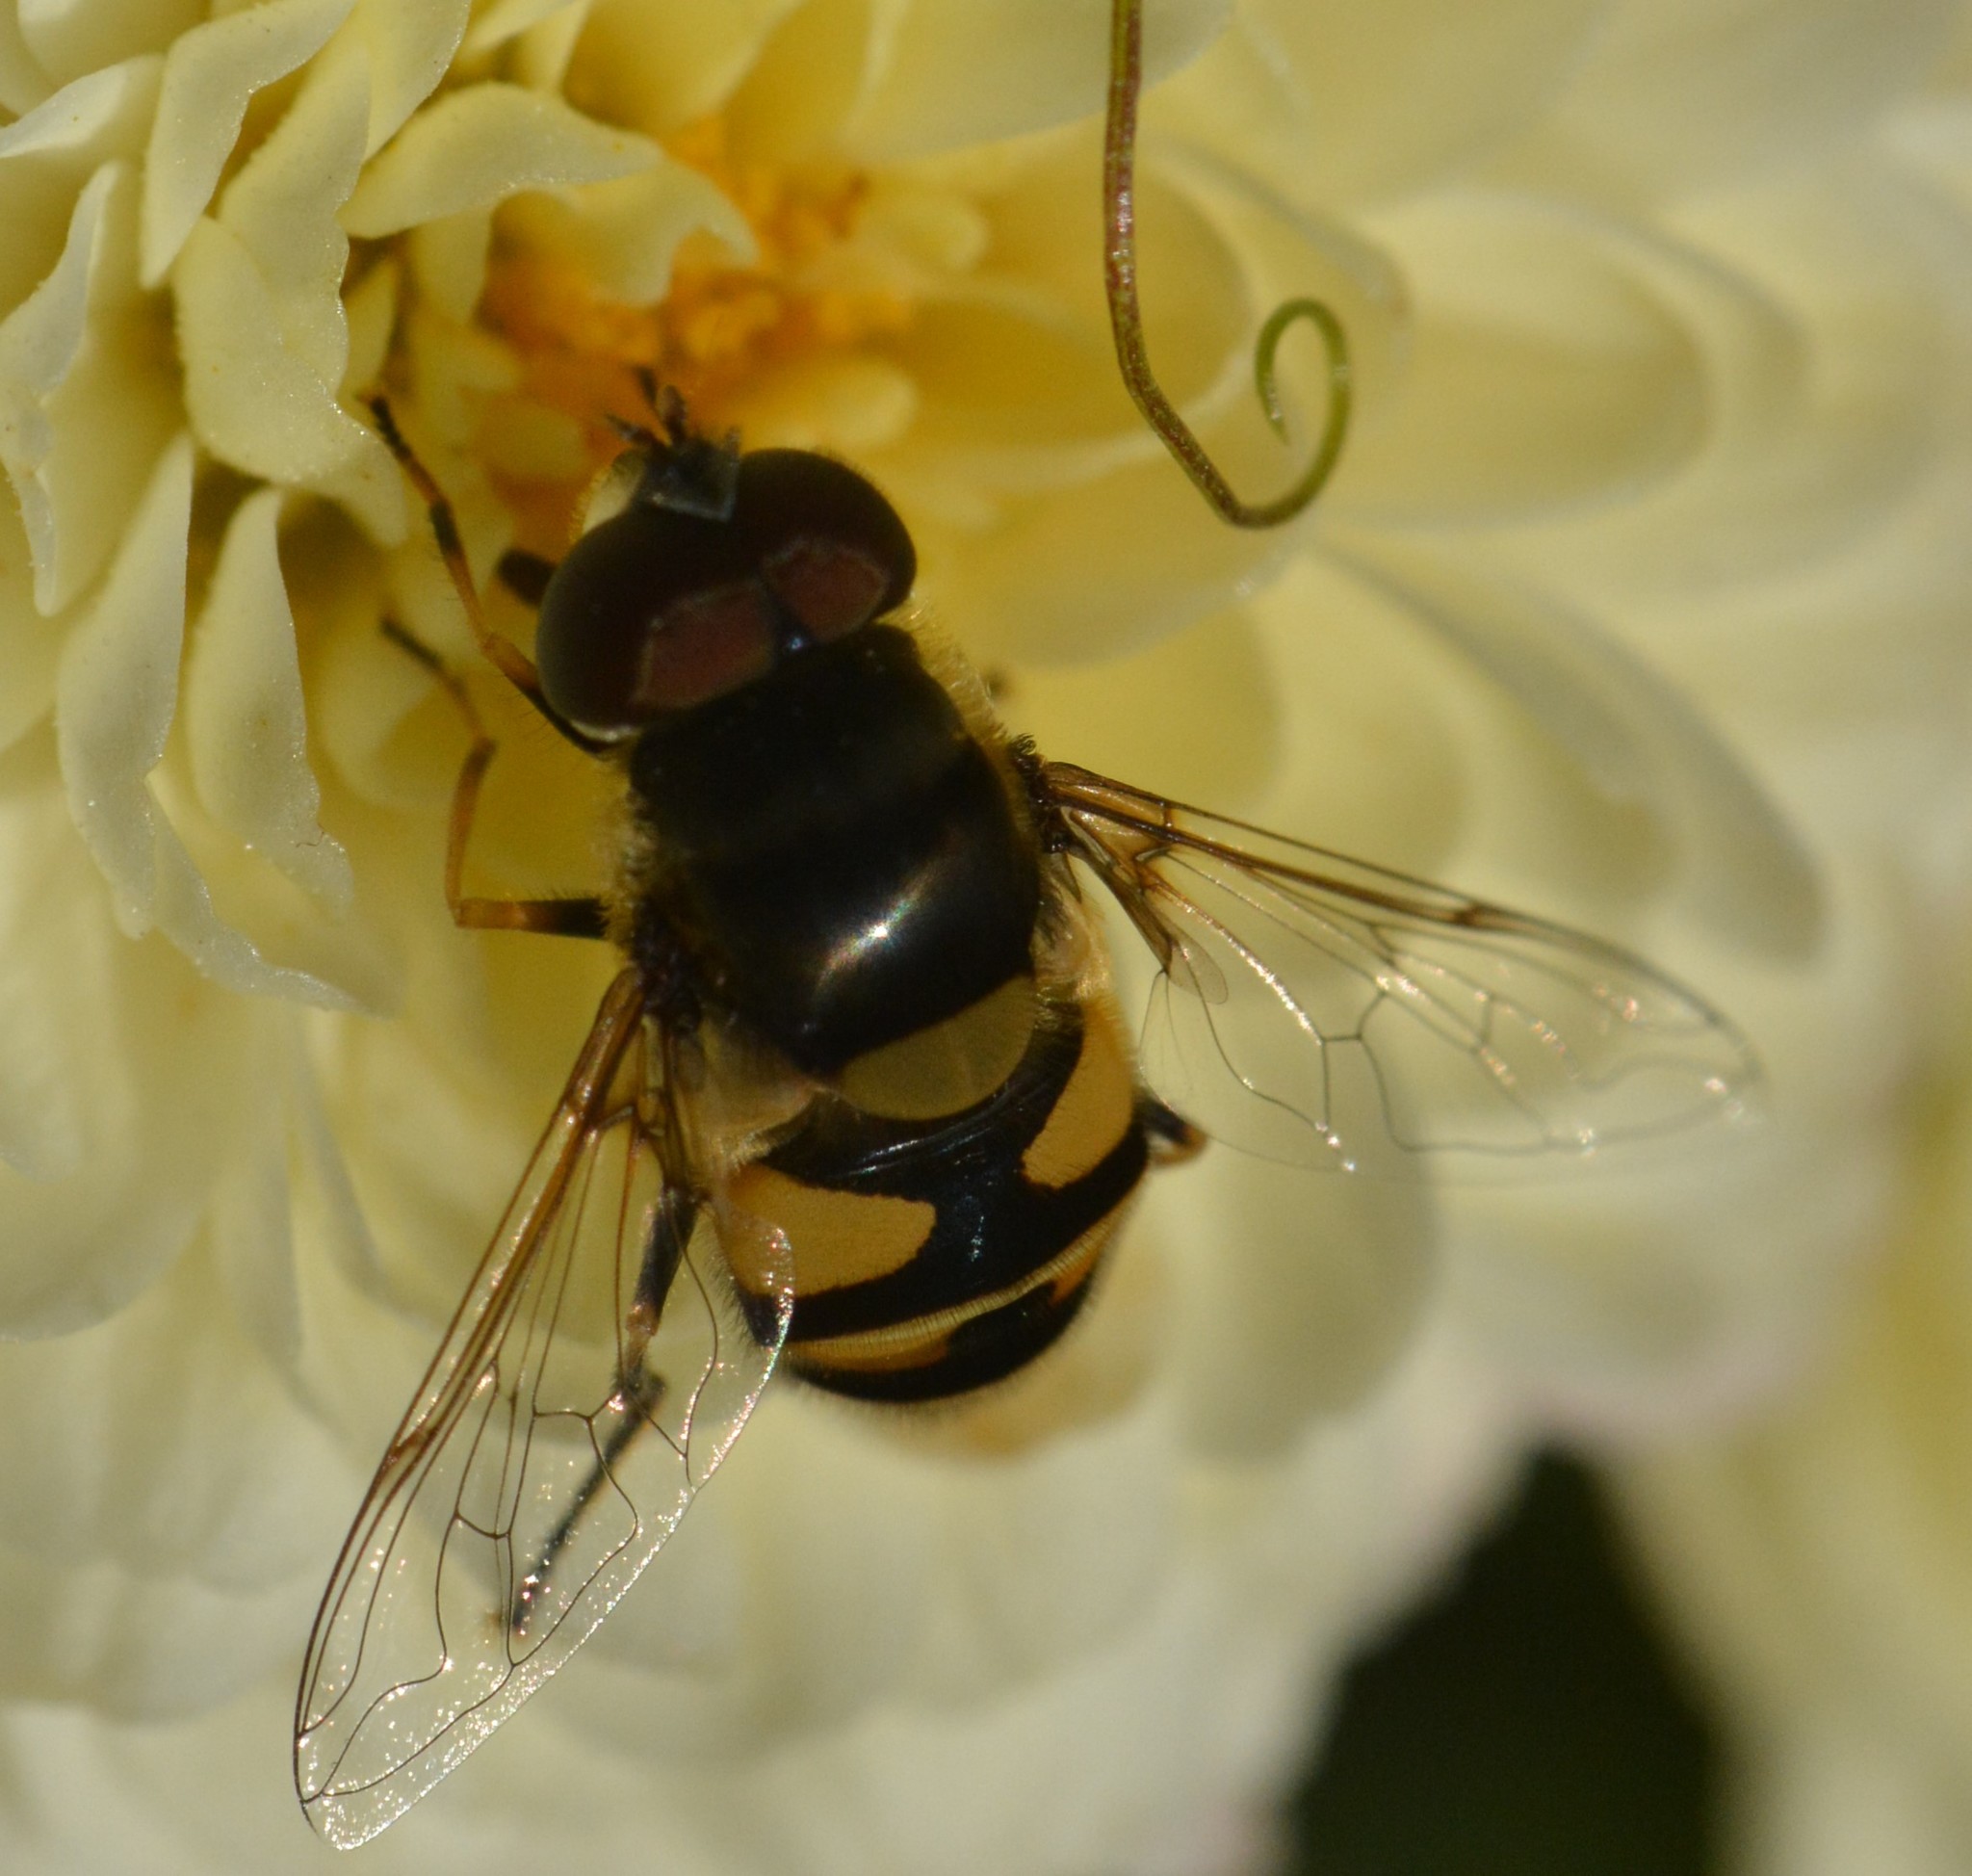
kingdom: Animalia
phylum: Arthropoda
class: Insecta
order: Diptera
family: Syrphidae
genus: Eristalis
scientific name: Eristalis transversa
